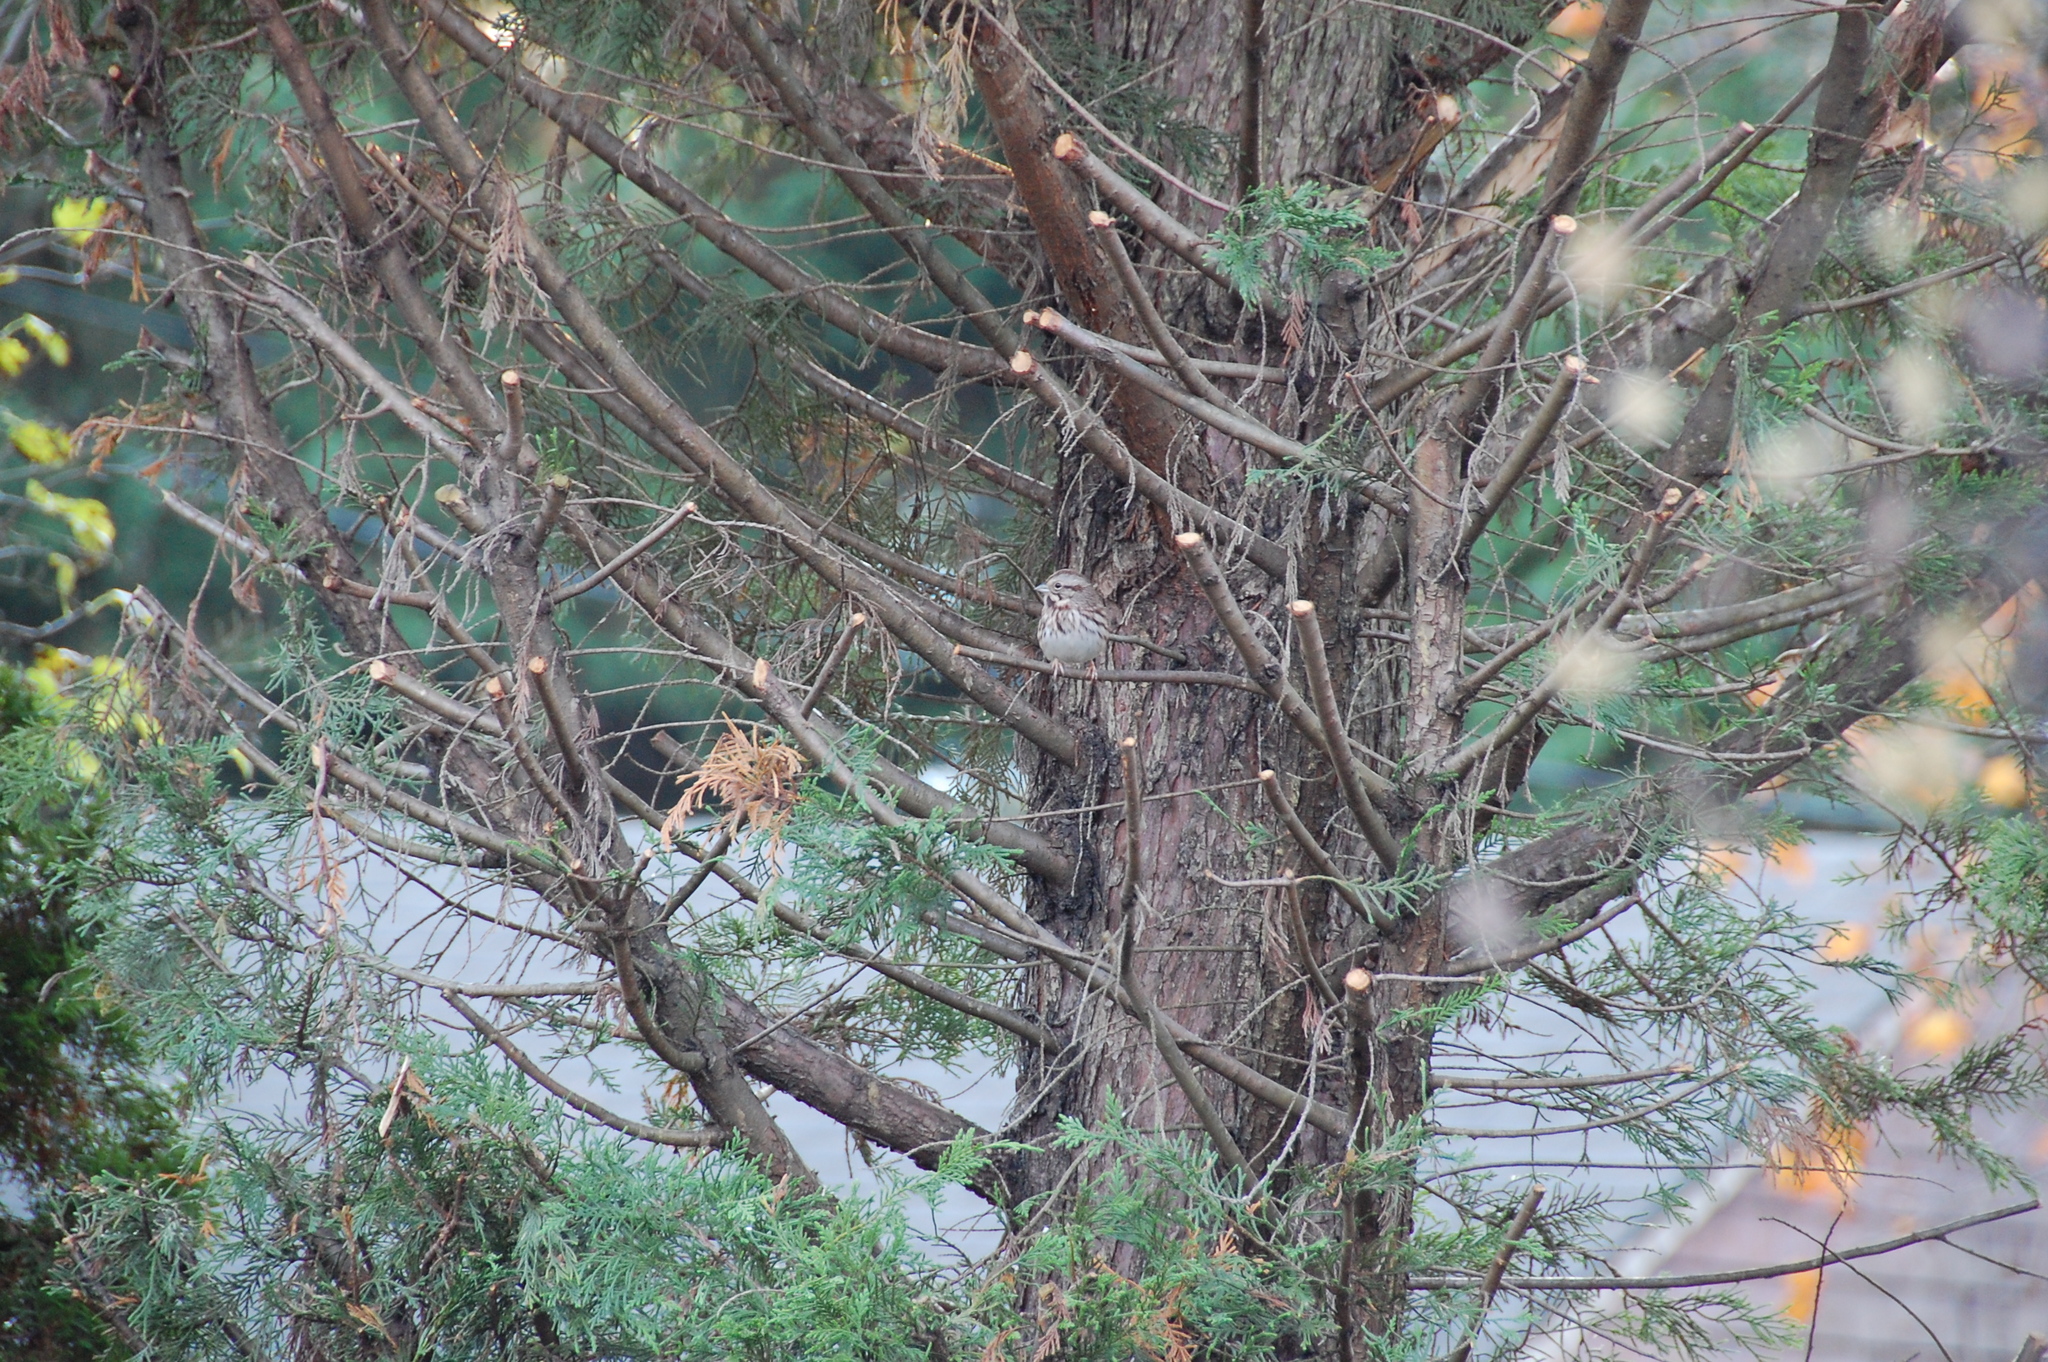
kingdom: Animalia
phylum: Chordata
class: Aves
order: Passeriformes
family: Passerellidae
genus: Melospiza
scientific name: Melospiza melodia
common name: Song sparrow
